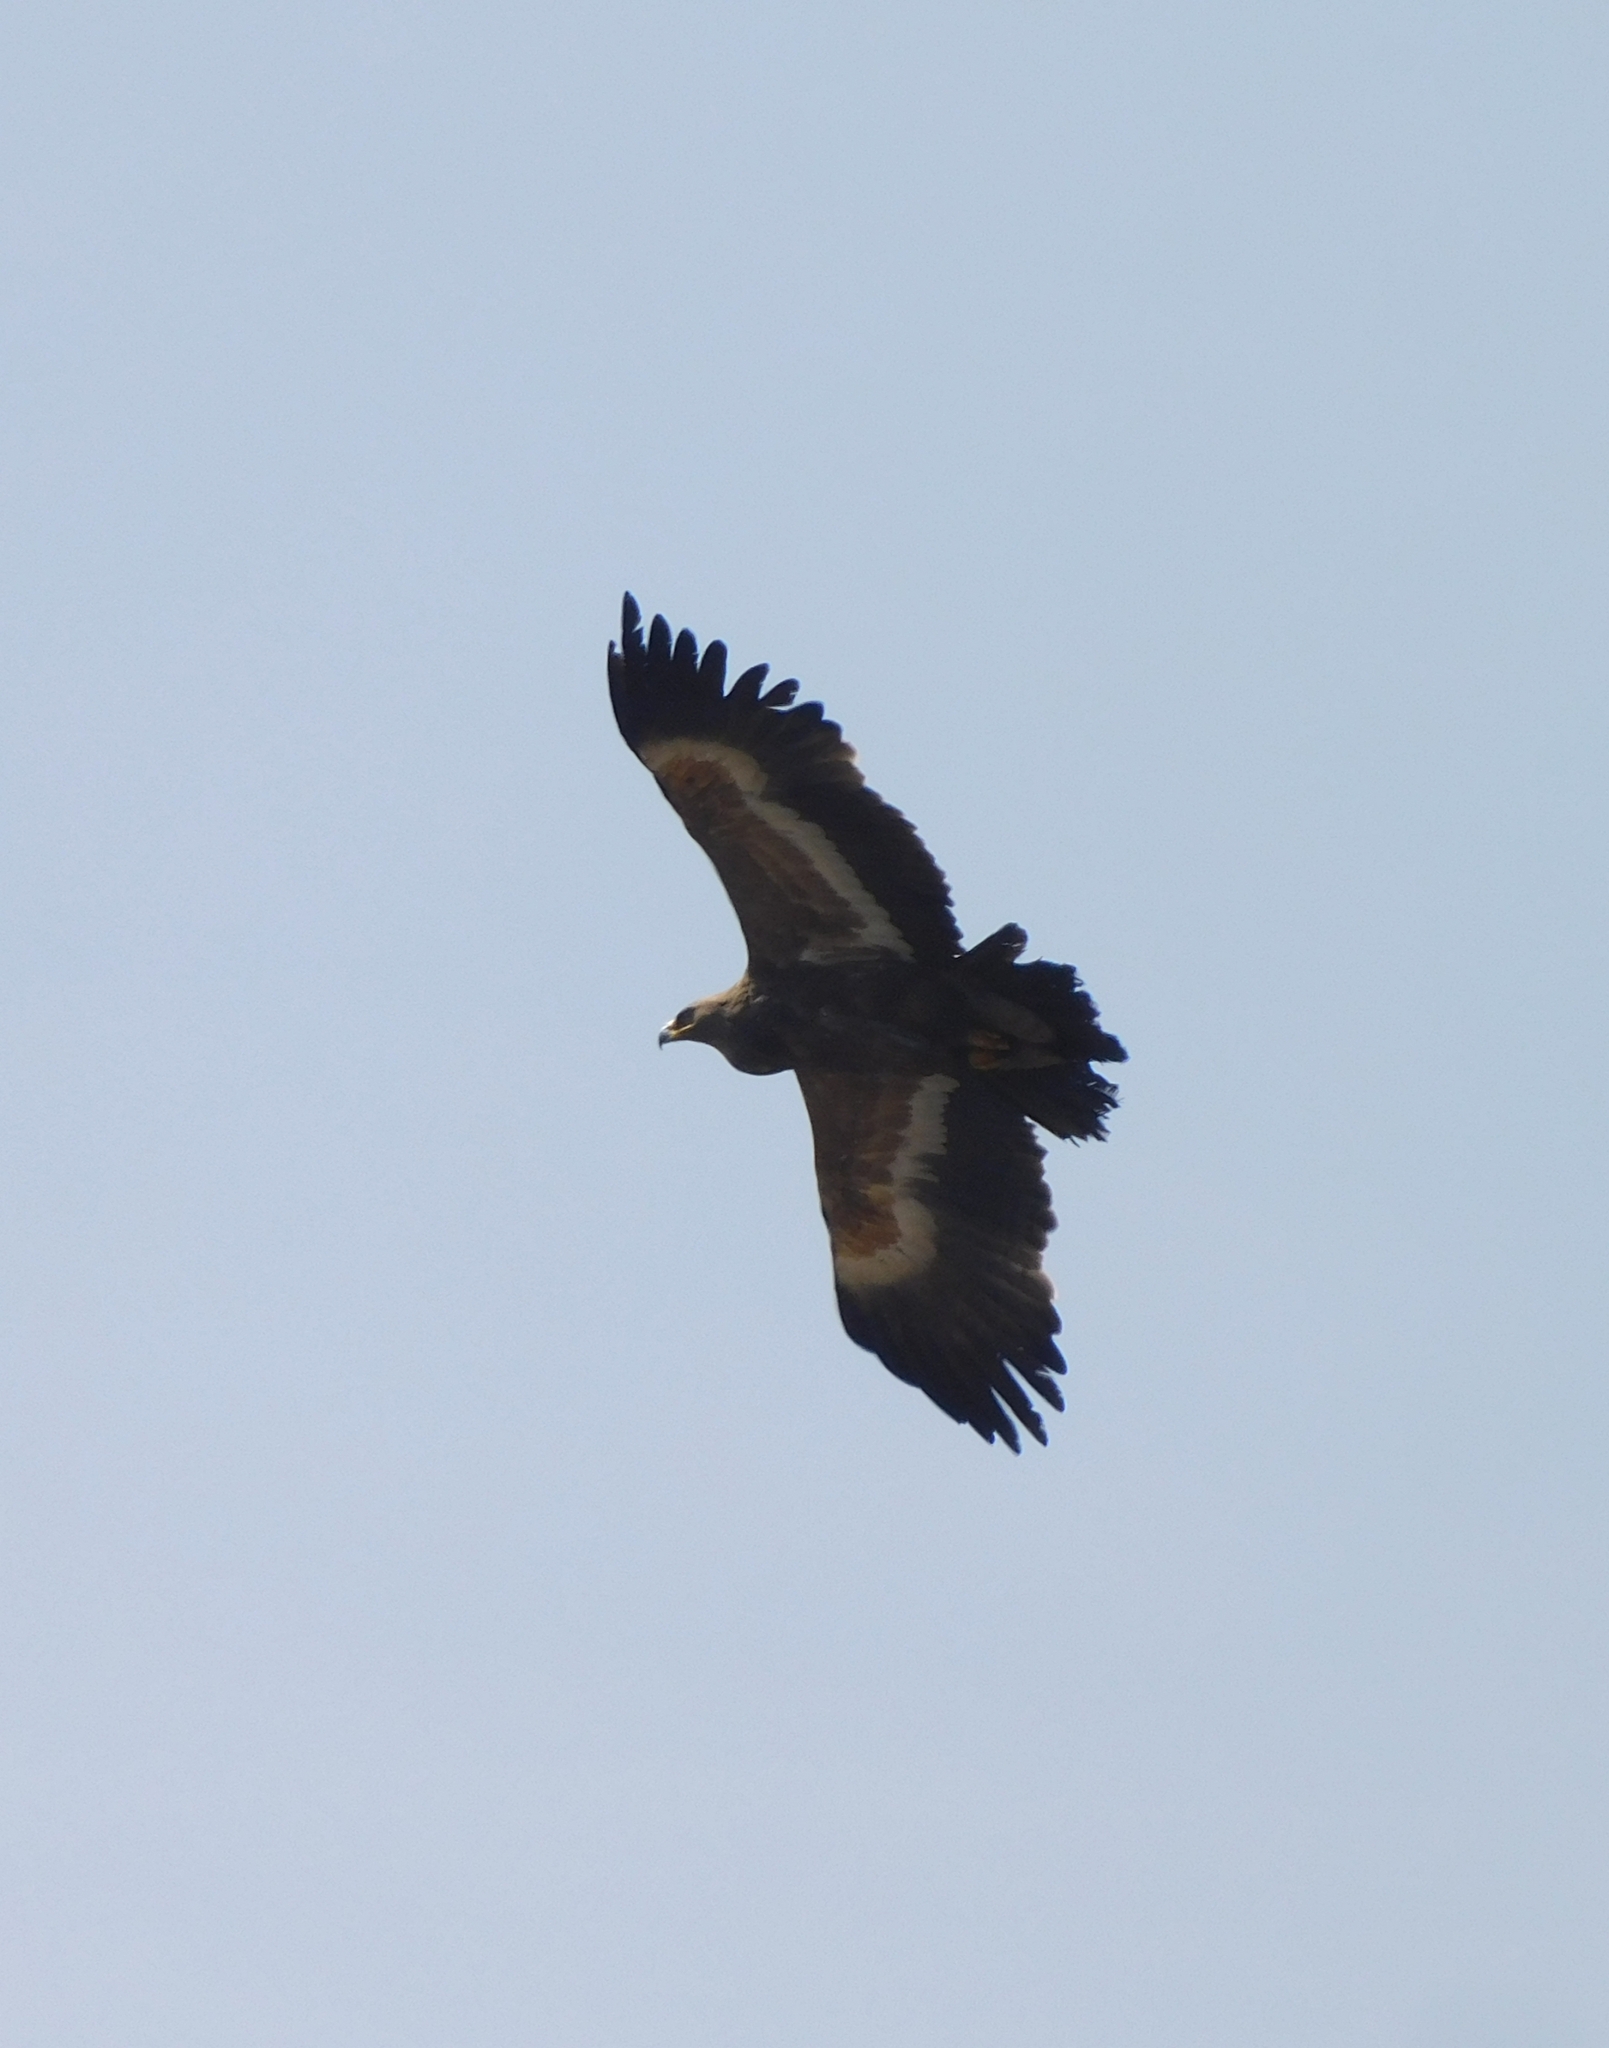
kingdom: Animalia
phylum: Chordata
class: Aves
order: Accipitriformes
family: Accipitridae
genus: Aquila
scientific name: Aquila nipalensis
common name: Steppe eagle
